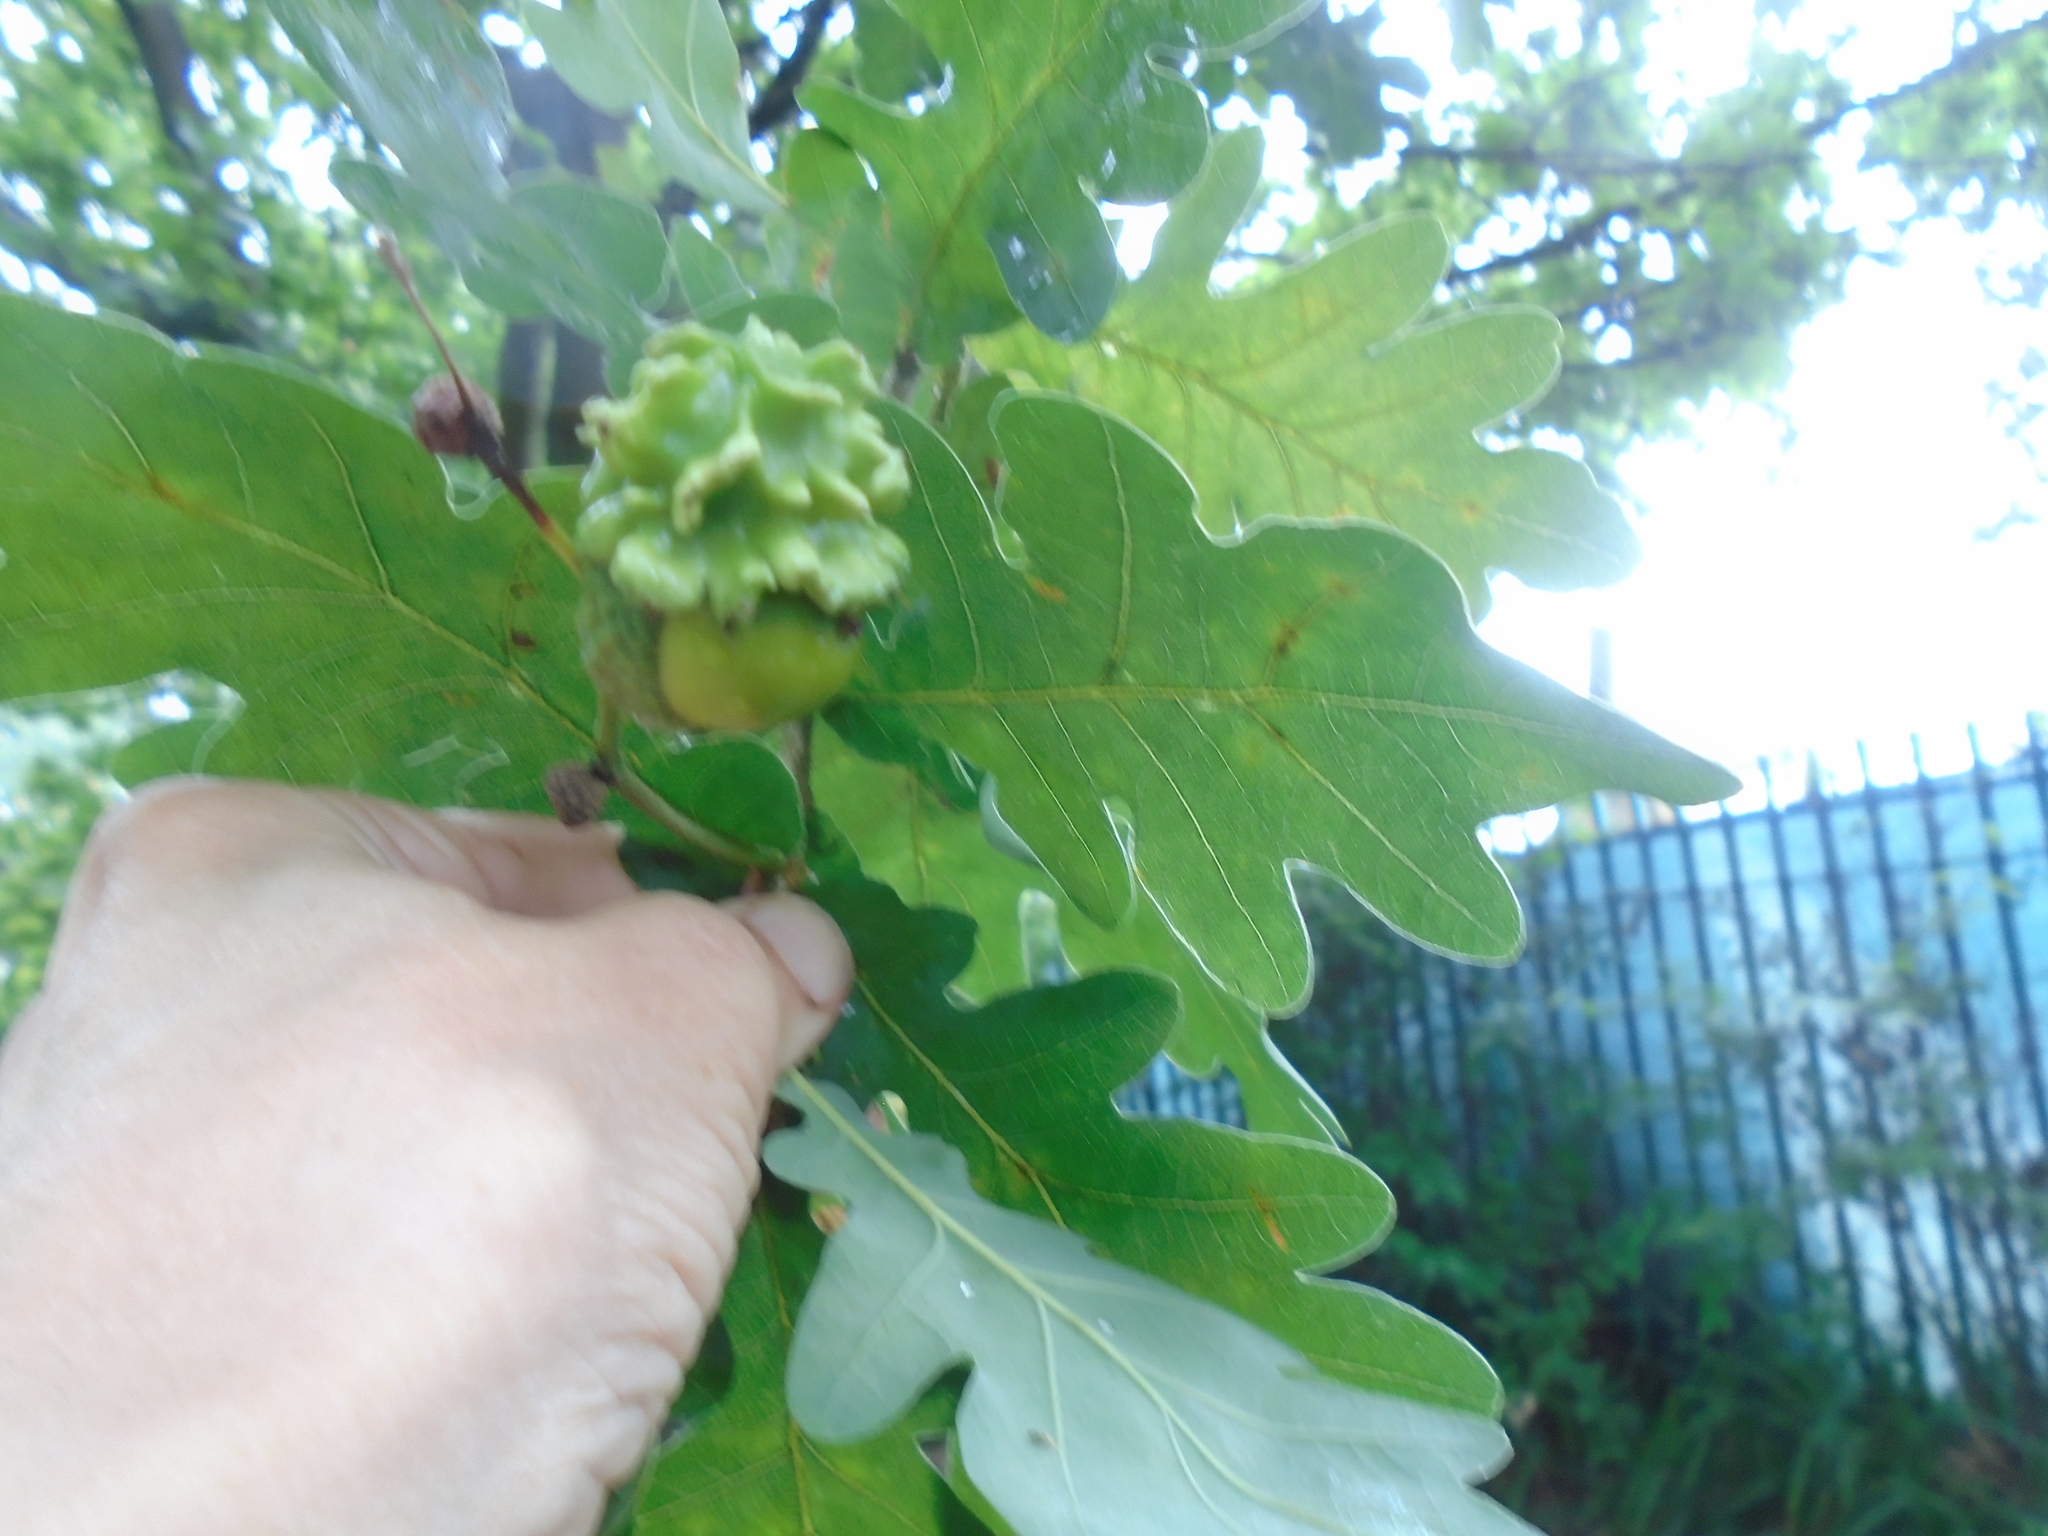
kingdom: Animalia
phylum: Arthropoda
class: Insecta
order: Hymenoptera
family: Cynipidae
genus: Andricus
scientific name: Andricus quercuscalicis
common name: Knopper gall
